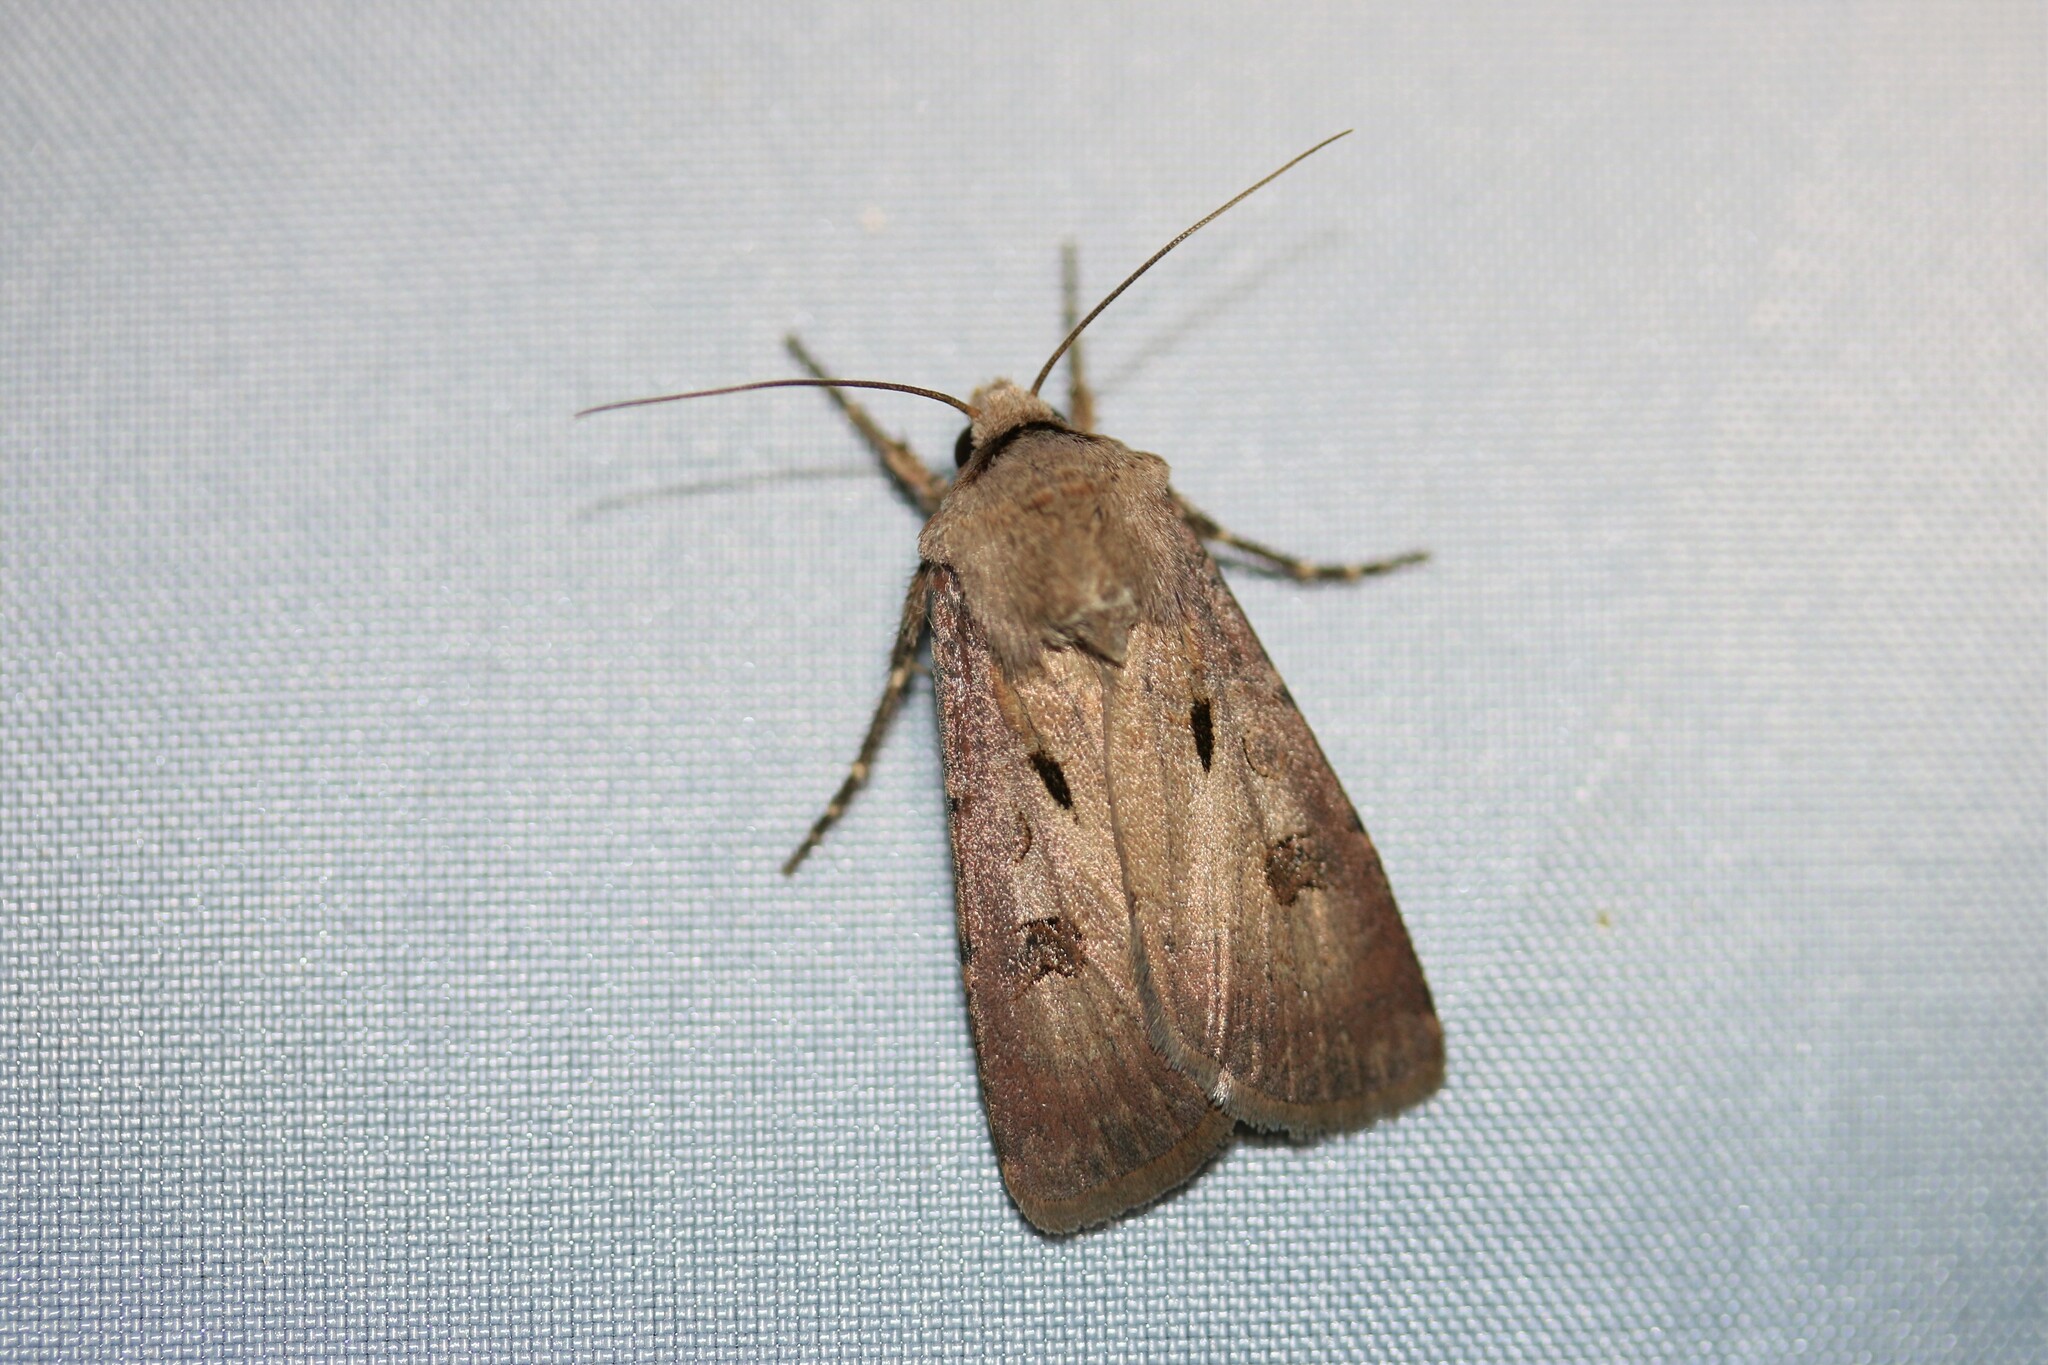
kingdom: Animalia
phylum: Arthropoda
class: Insecta
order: Lepidoptera
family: Noctuidae
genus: Agrotis
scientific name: Agrotis exclamationis
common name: Heart and dart
